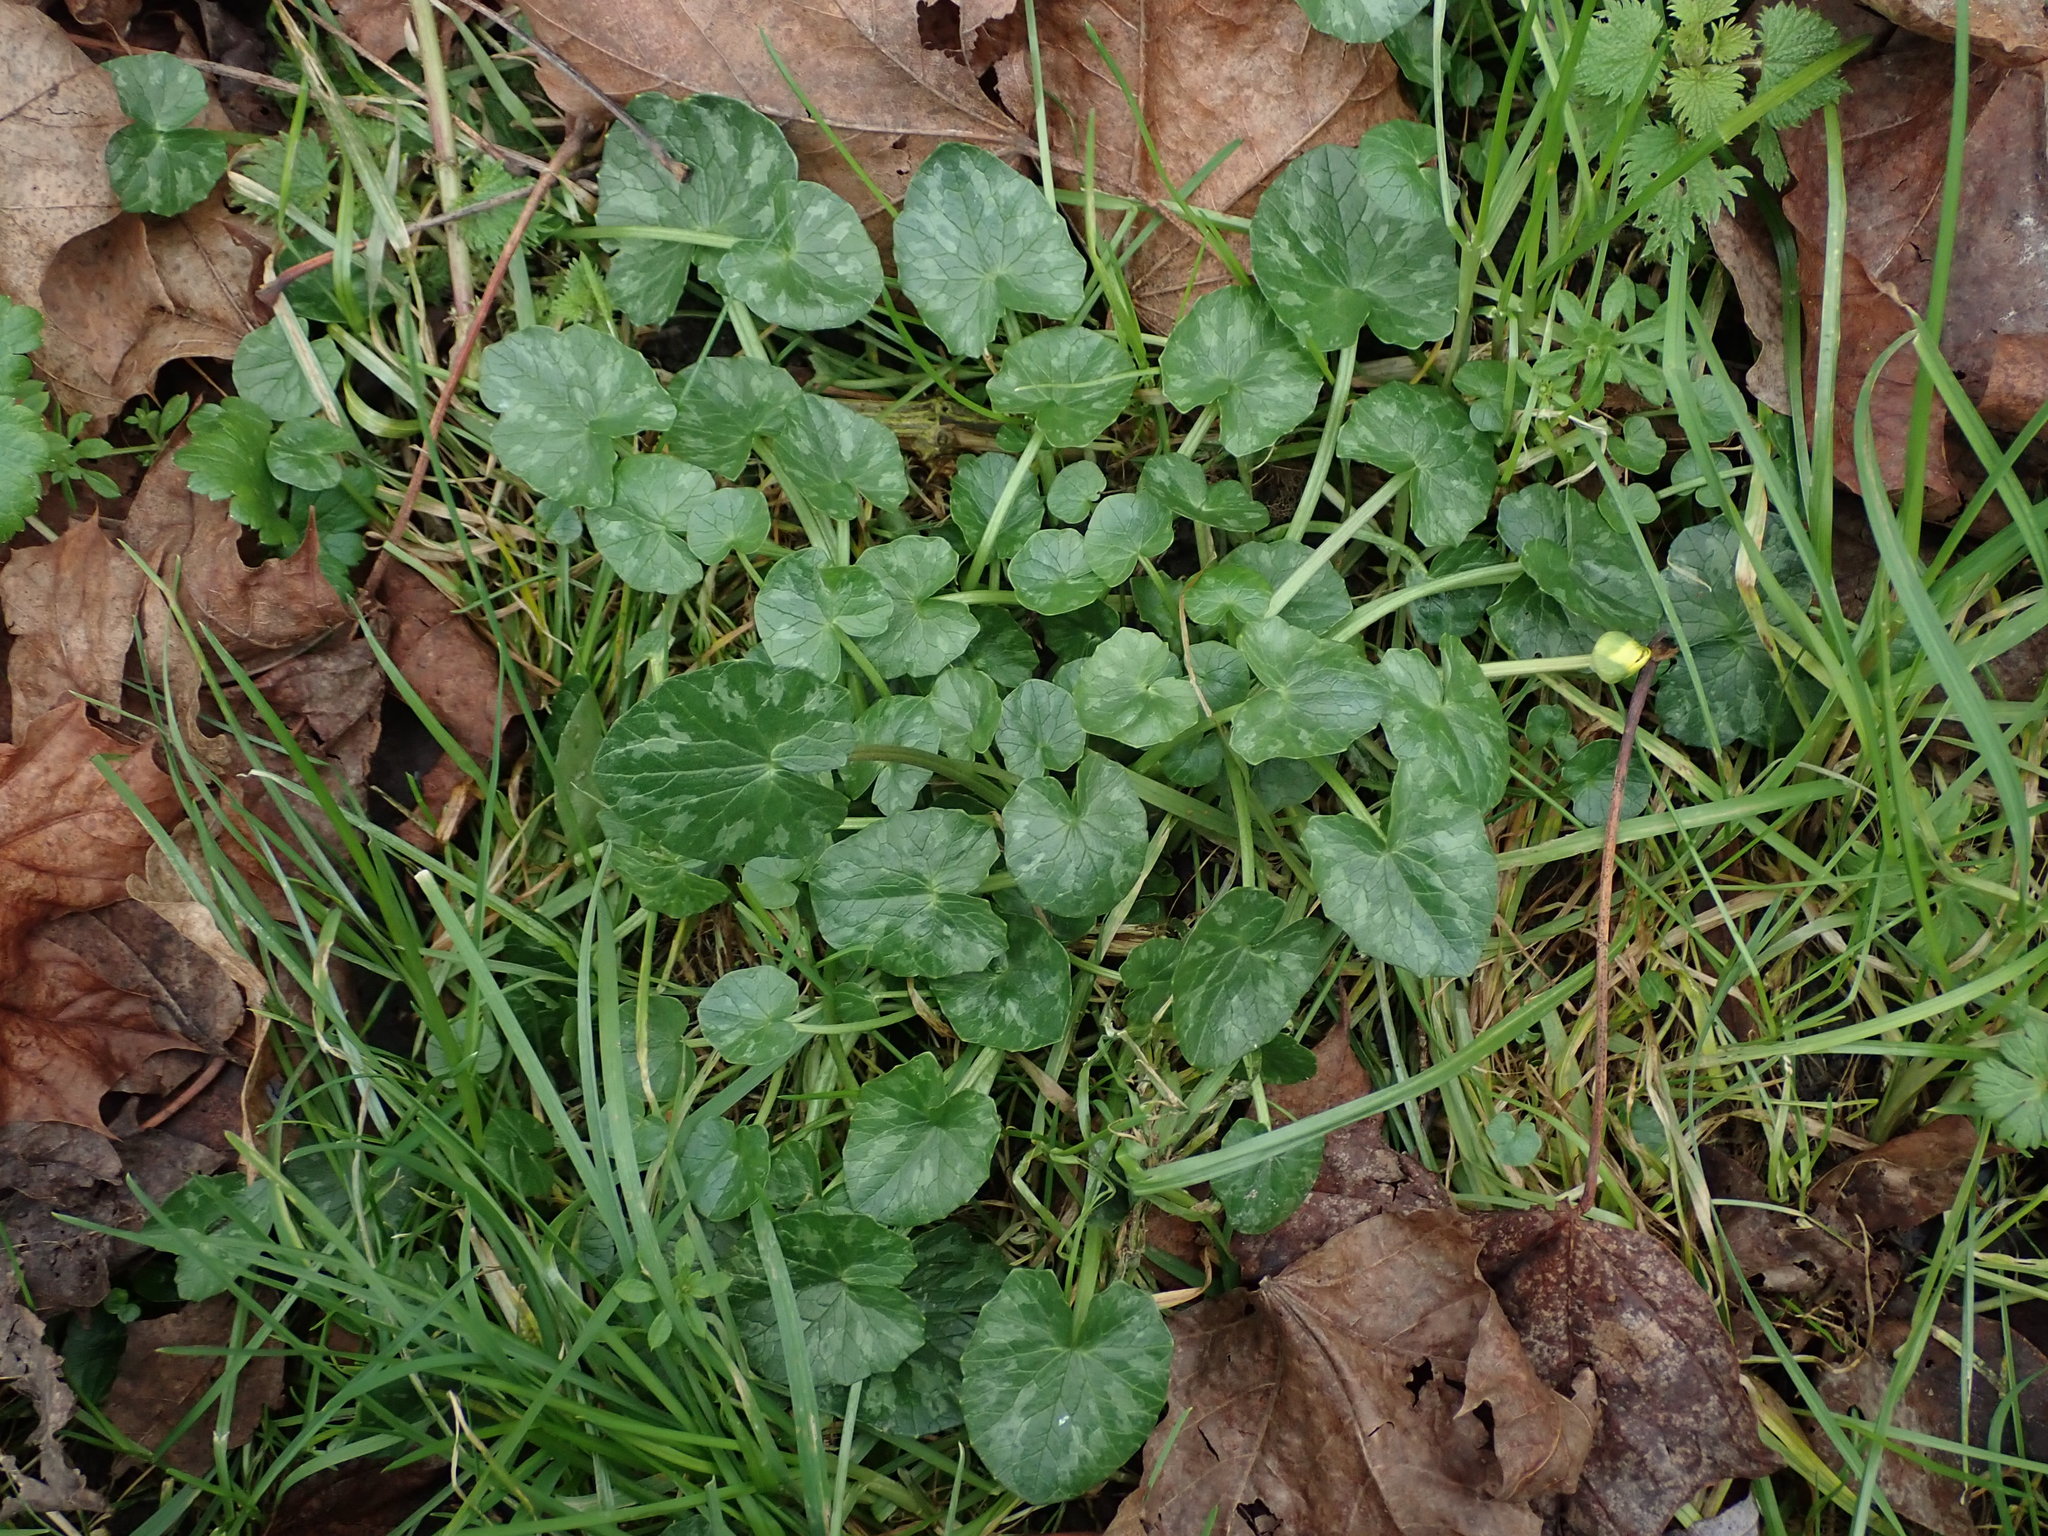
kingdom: Plantae
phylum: Tracheophyta
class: Magnoliopsida
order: Ranunculales
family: Ranunculaceae
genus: Ficaria
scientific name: Ficaria verna
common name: Lesser celandine
